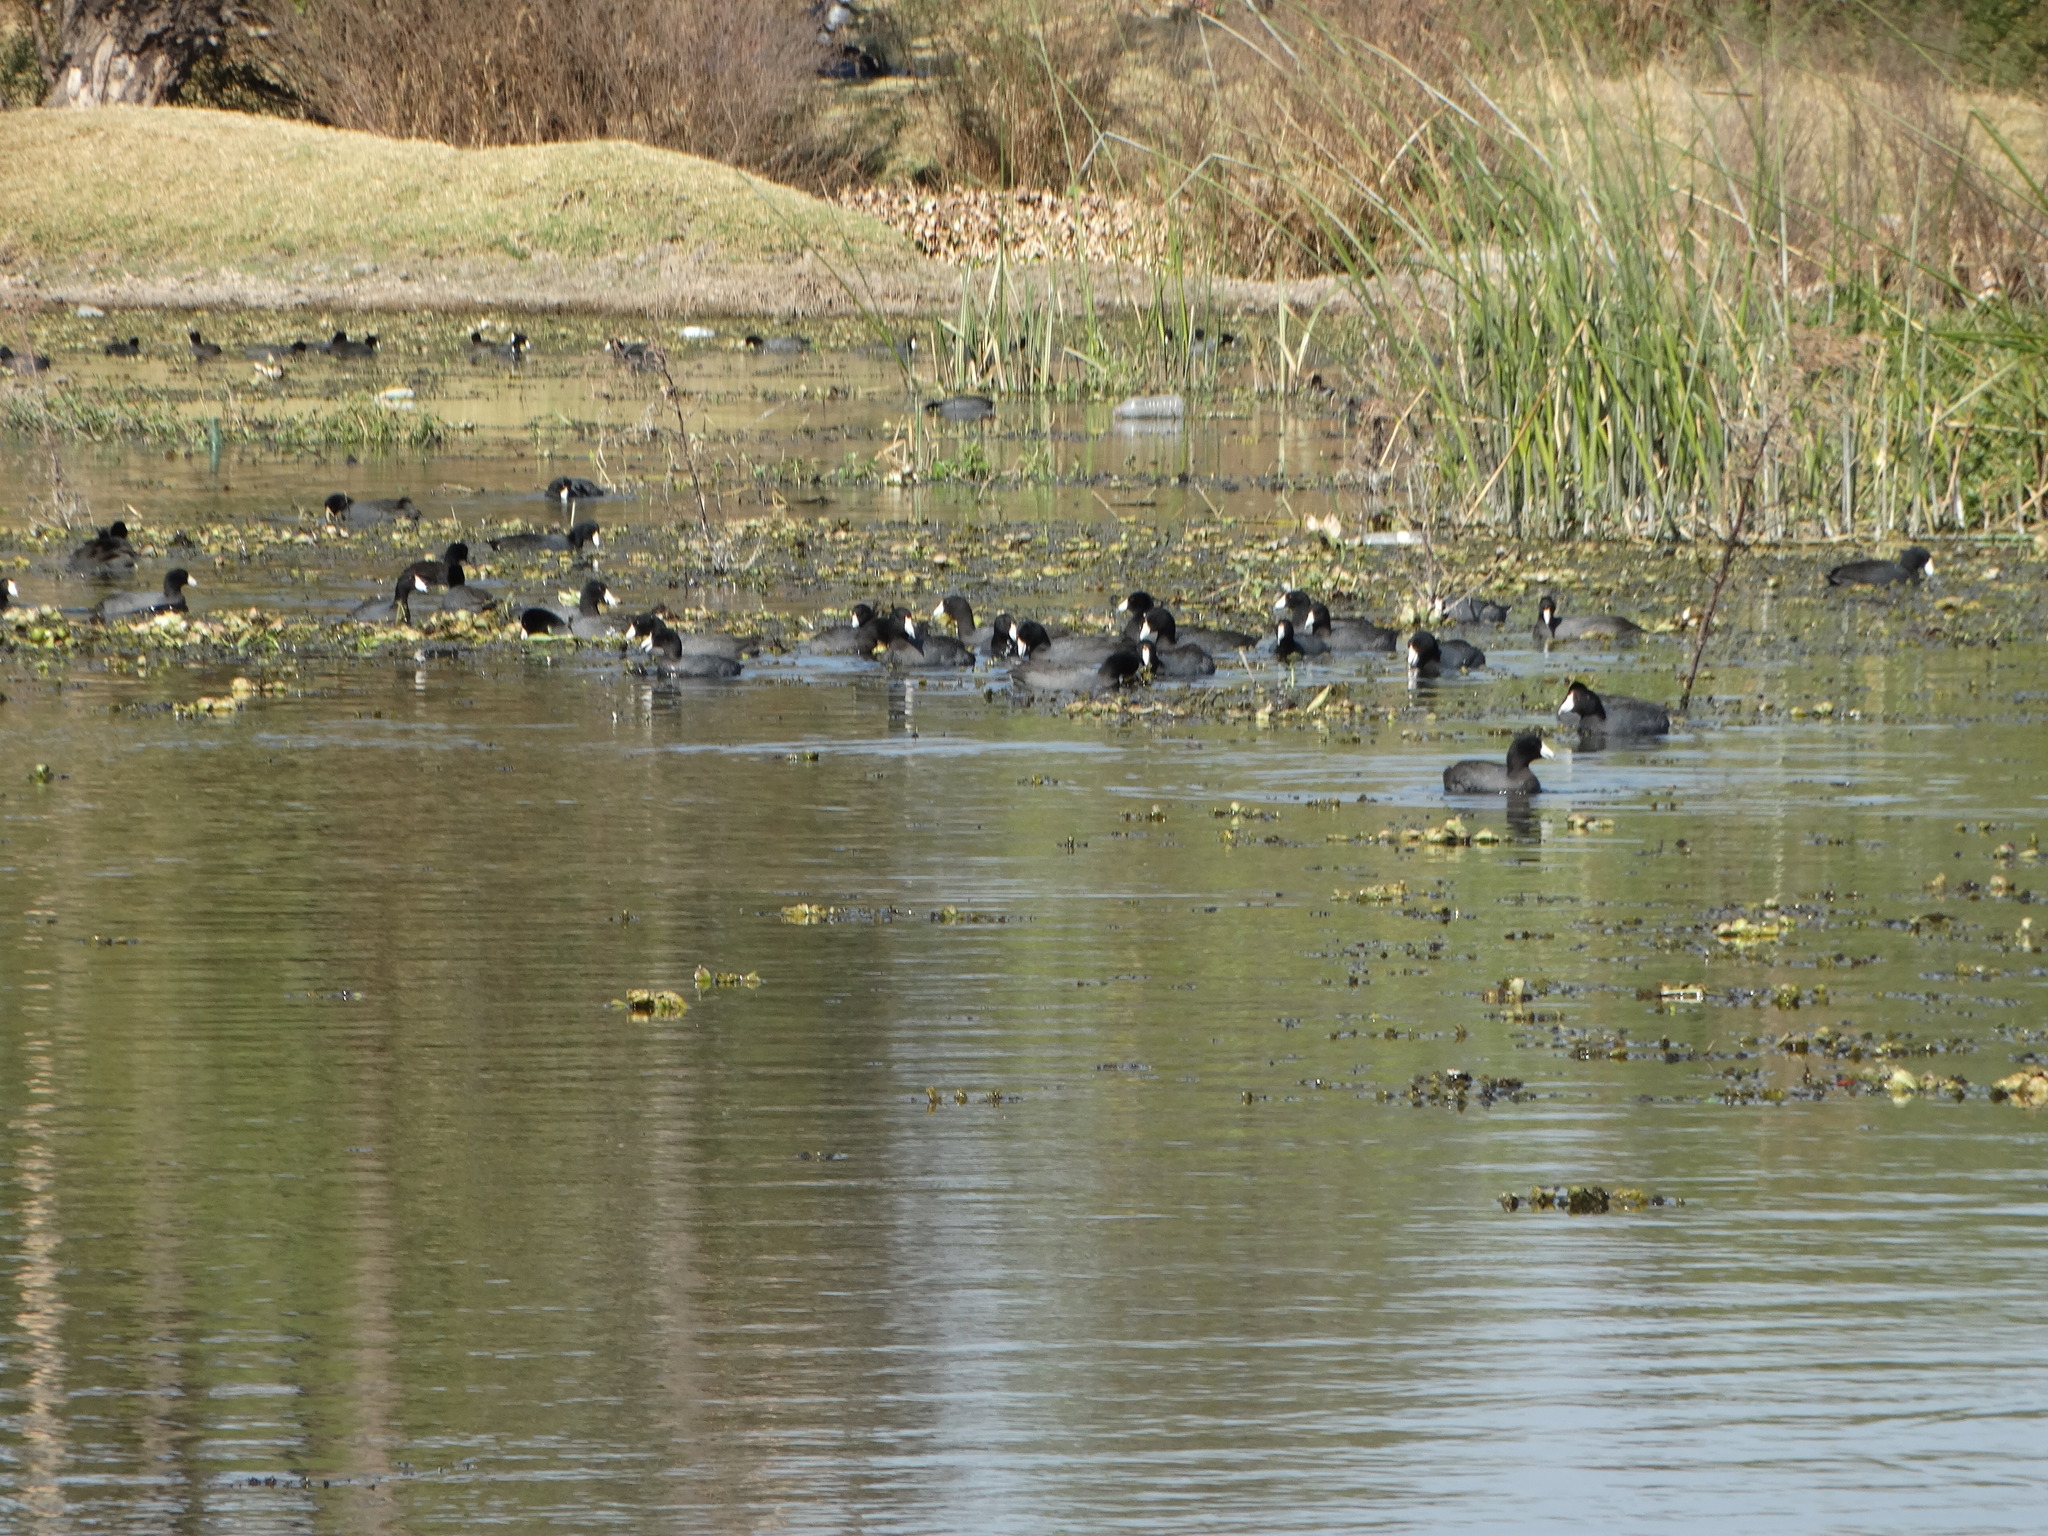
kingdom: Animalia
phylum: Chordata
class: Aves
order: Gruiformes
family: Rallidae
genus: Fulica
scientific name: Fulica americana
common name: American coot
